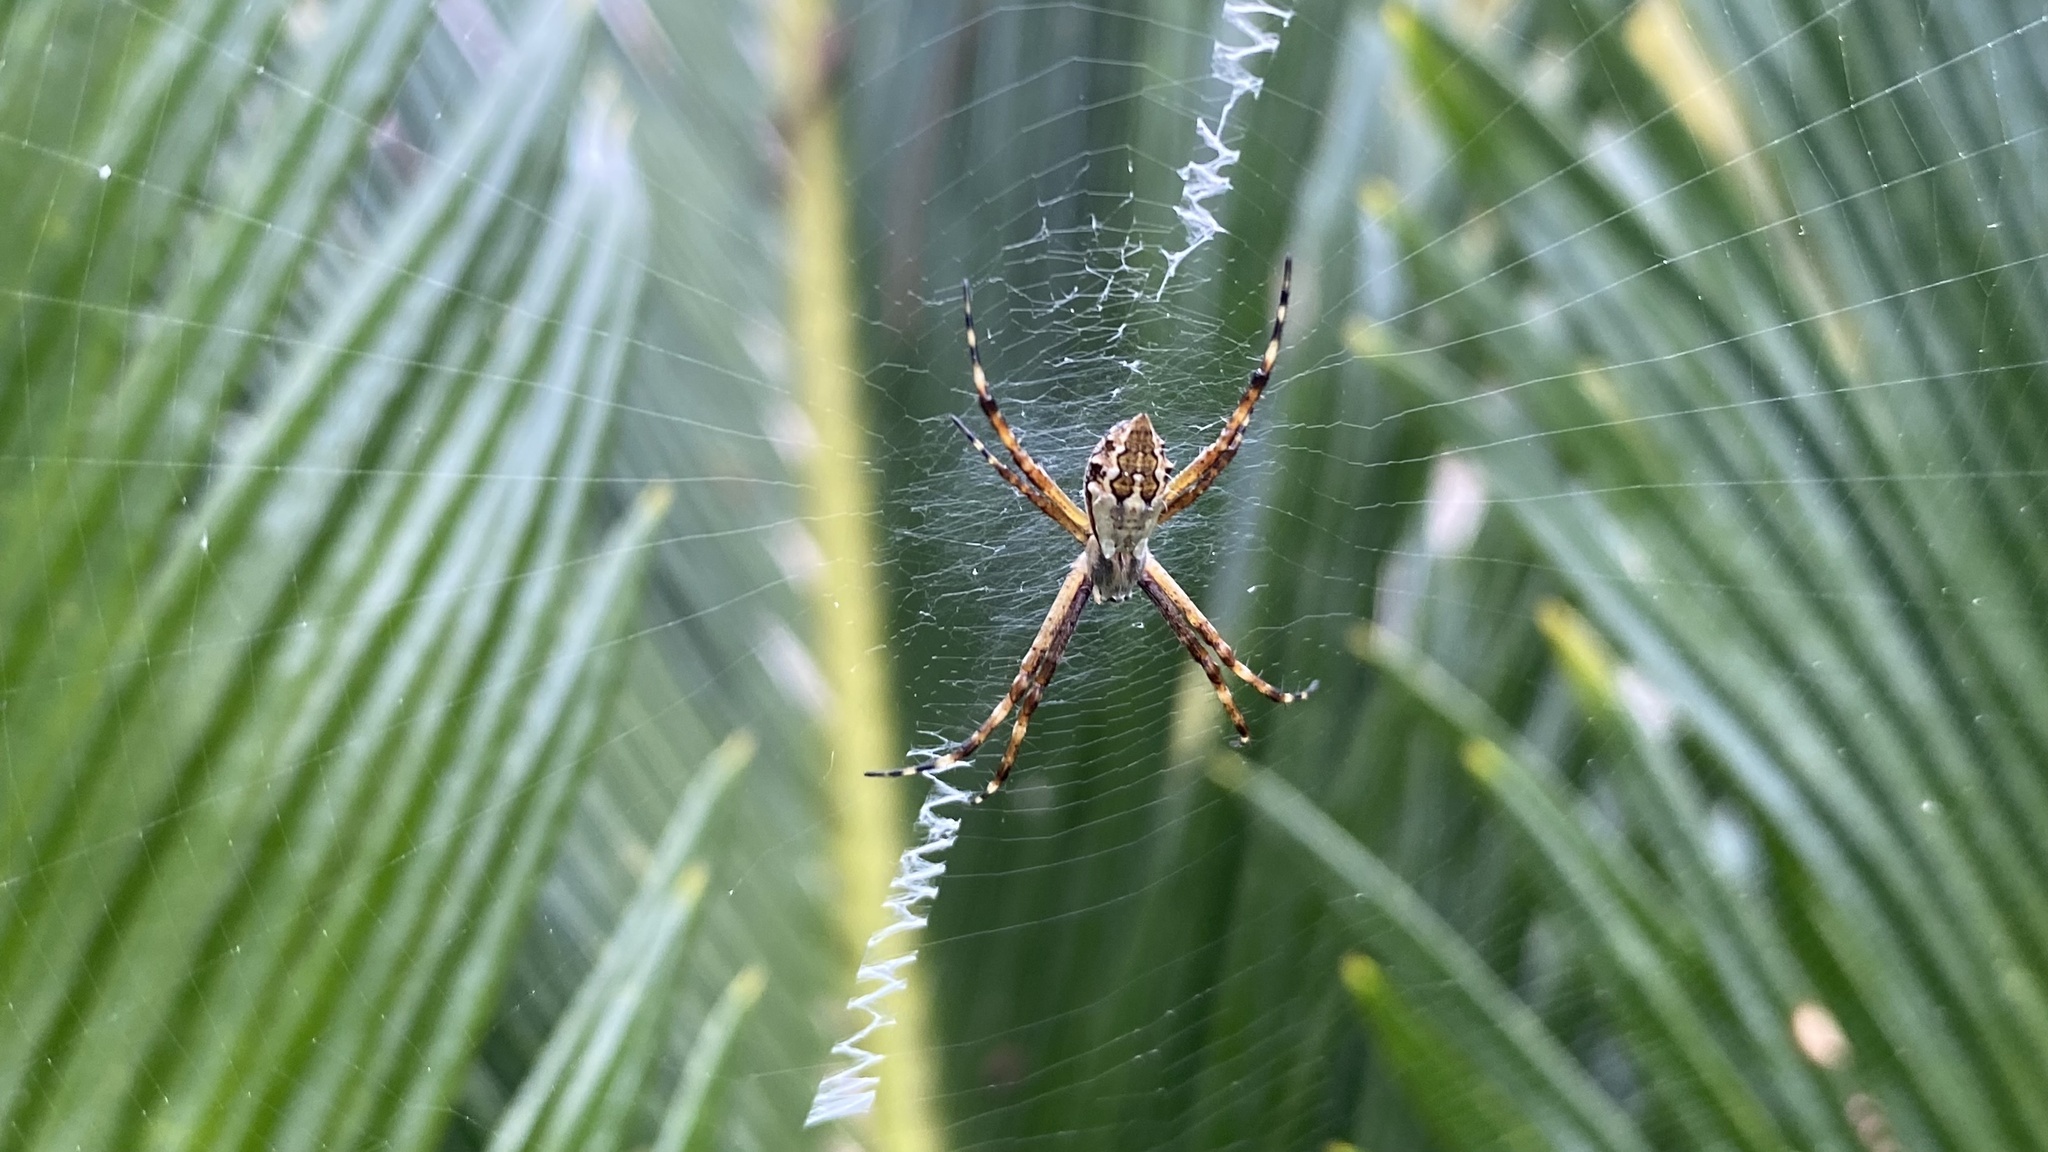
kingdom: Animalia
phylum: Arthropoda
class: Arachnida
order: Araneae
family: Araneidae
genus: Argiope
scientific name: Argiope argentata
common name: Orb weavers
